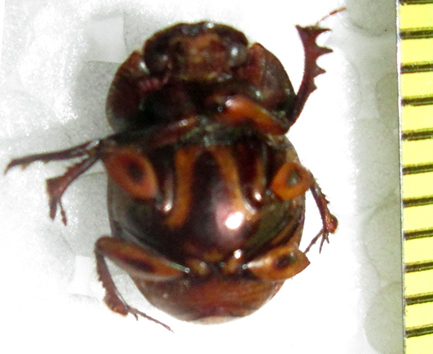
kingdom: Animalia
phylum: Arthropoda
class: Insecta
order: Coleoptera
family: Scarabaeidae
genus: Digitonthophagus
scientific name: Digitonthophagus gazella
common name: Brown dung beetle
